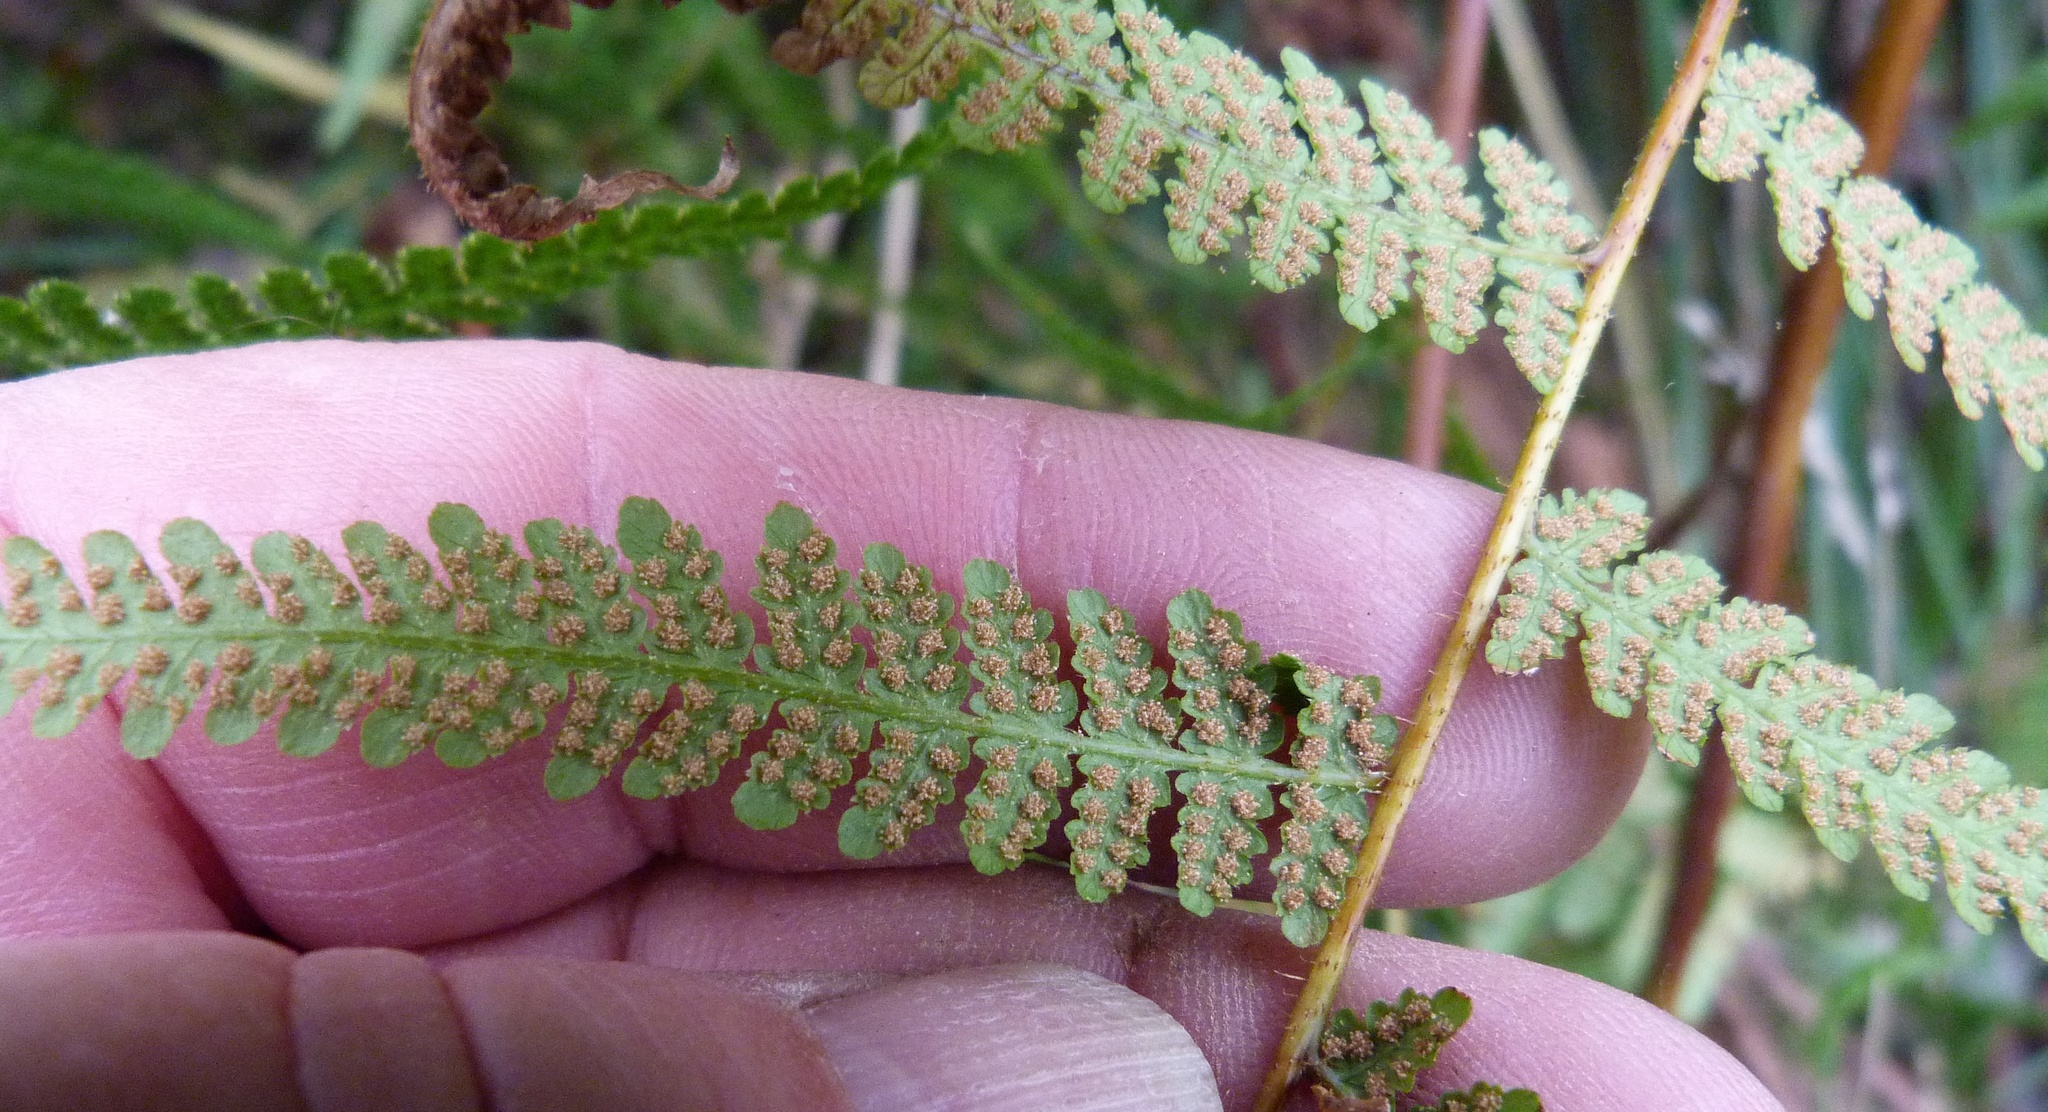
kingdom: Plantae
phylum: Tracheophyta
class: Polypodiopsida
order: Polypodiales
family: Dennstaedtiaceae
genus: Hypolepis
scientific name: Hypolepis ambigua
